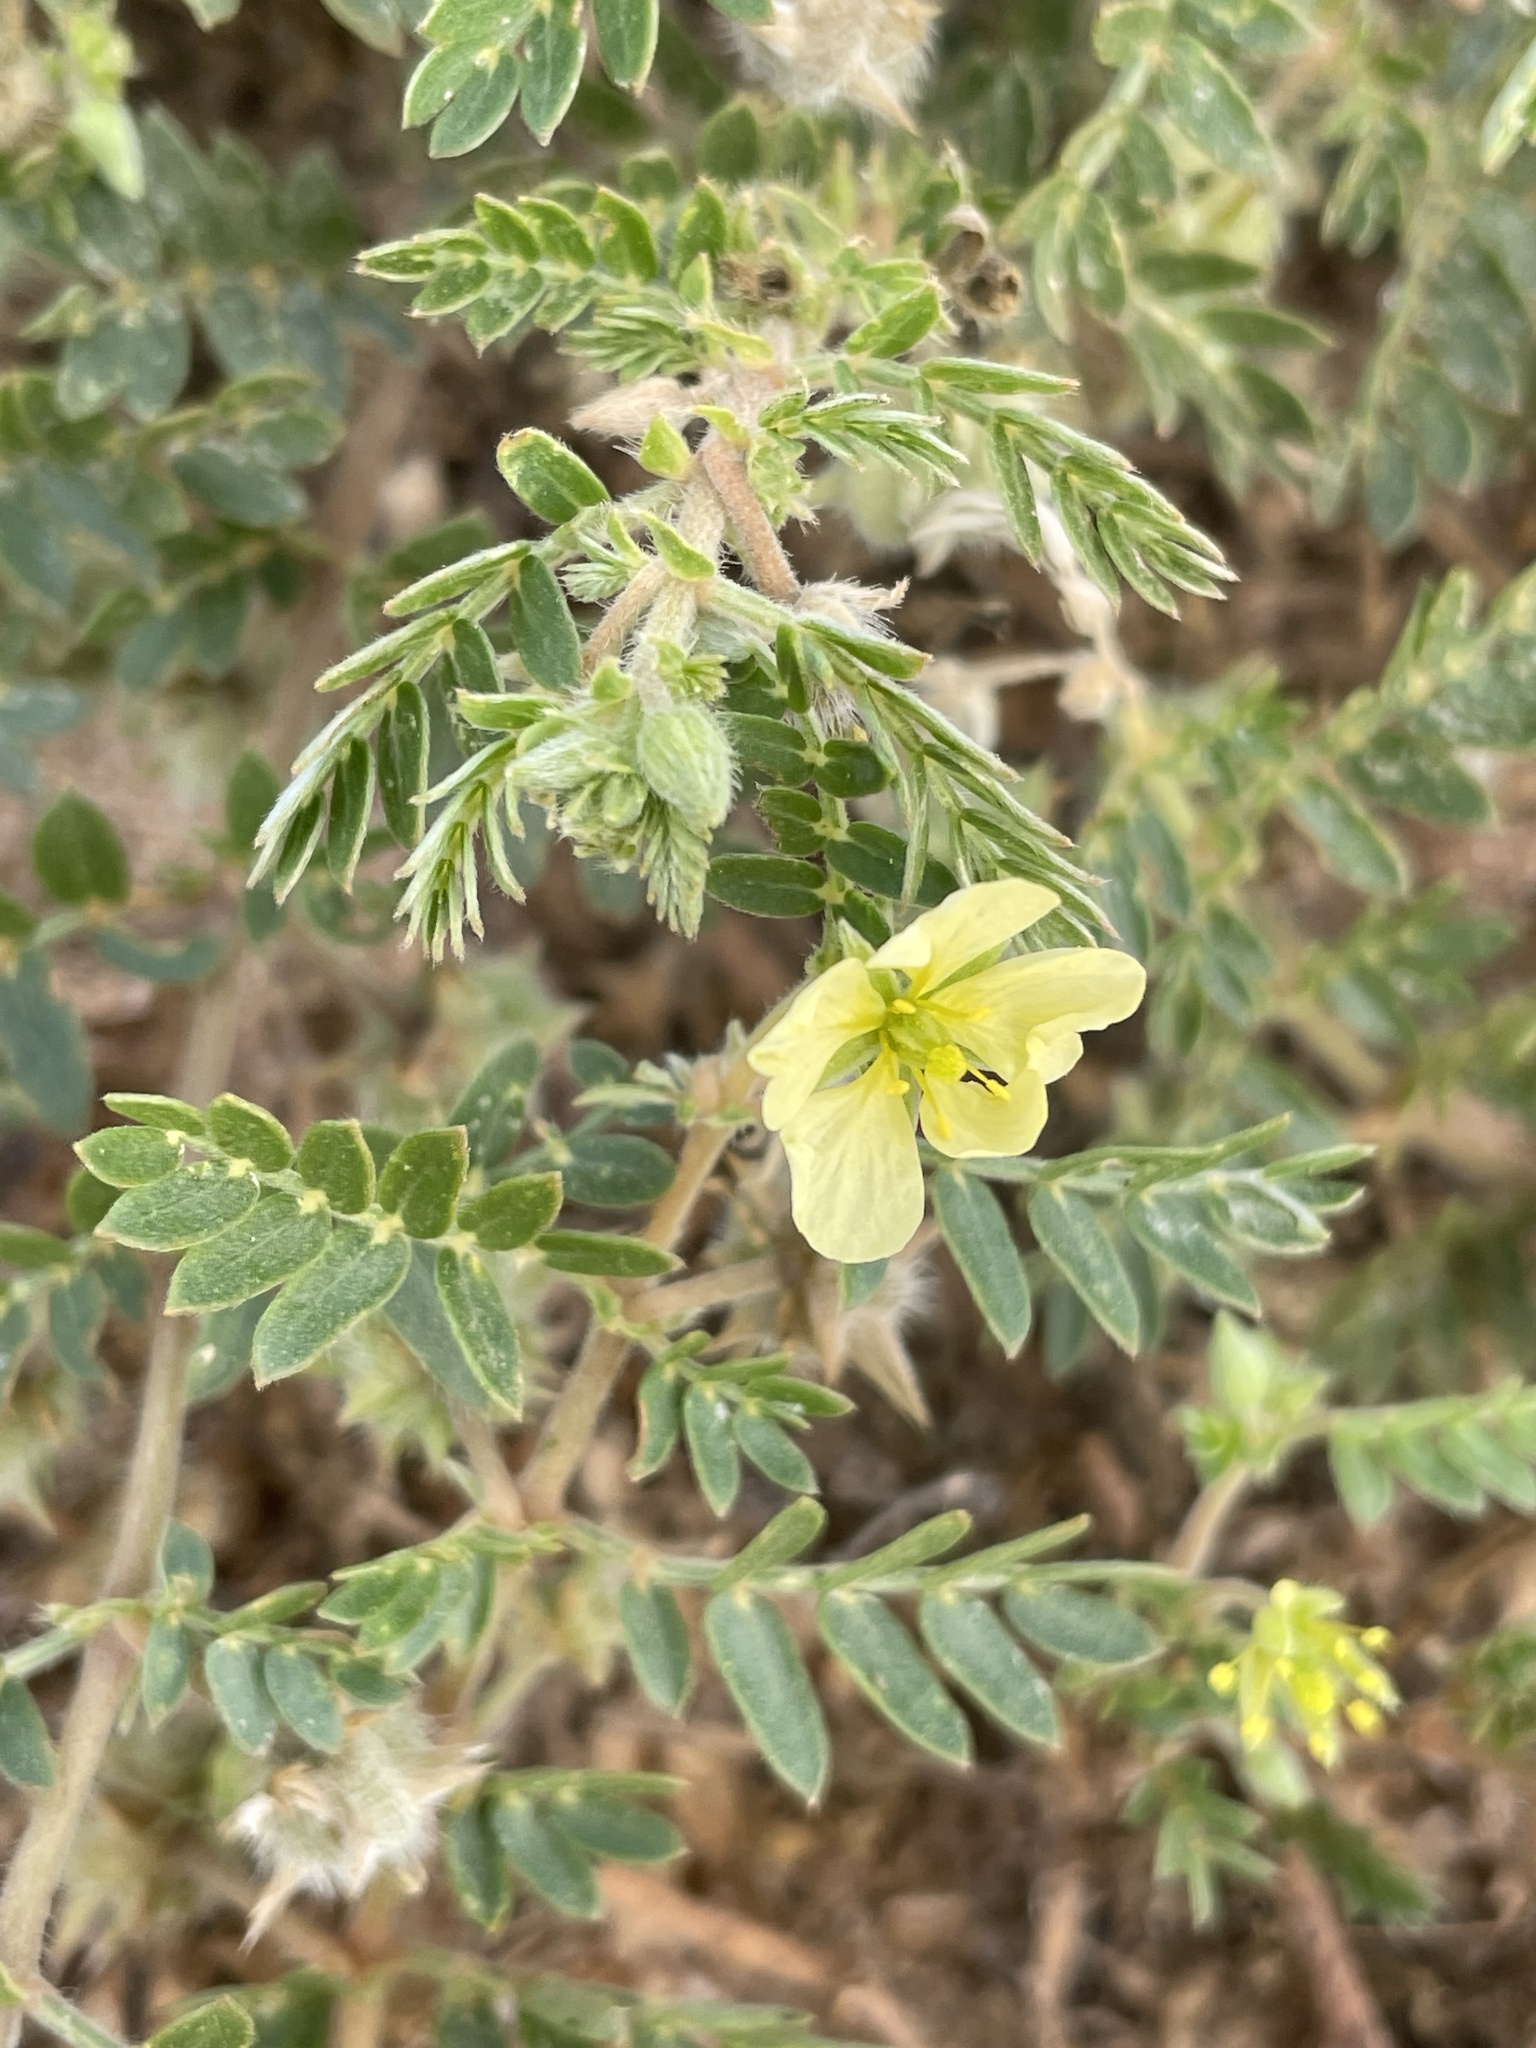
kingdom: Plantae
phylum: Tracheophyta
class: Magnoliopsida
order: Zygophyllales
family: Zygophyllaceae
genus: Tribulus
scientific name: Tribulus terrestris
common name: Puncturevine
